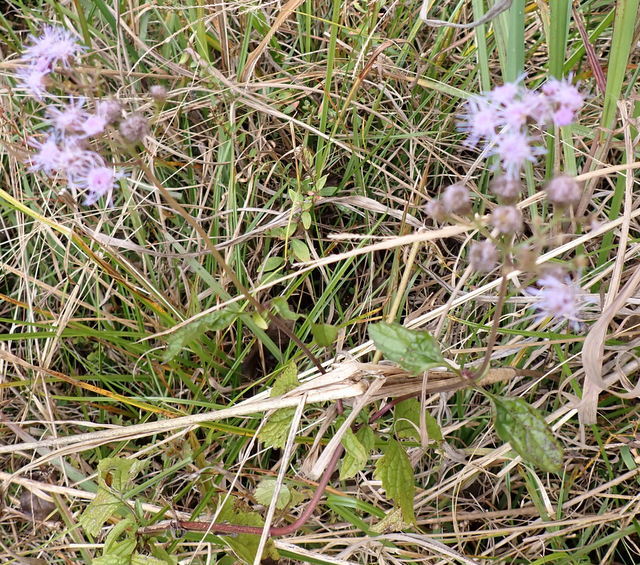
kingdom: Plantae
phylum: Tracheophyta
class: Magnoliopsida
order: Asterales
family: Asteraceae
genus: Conoclinium
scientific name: Conoclinium coelestinum
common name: Blue mistflower
